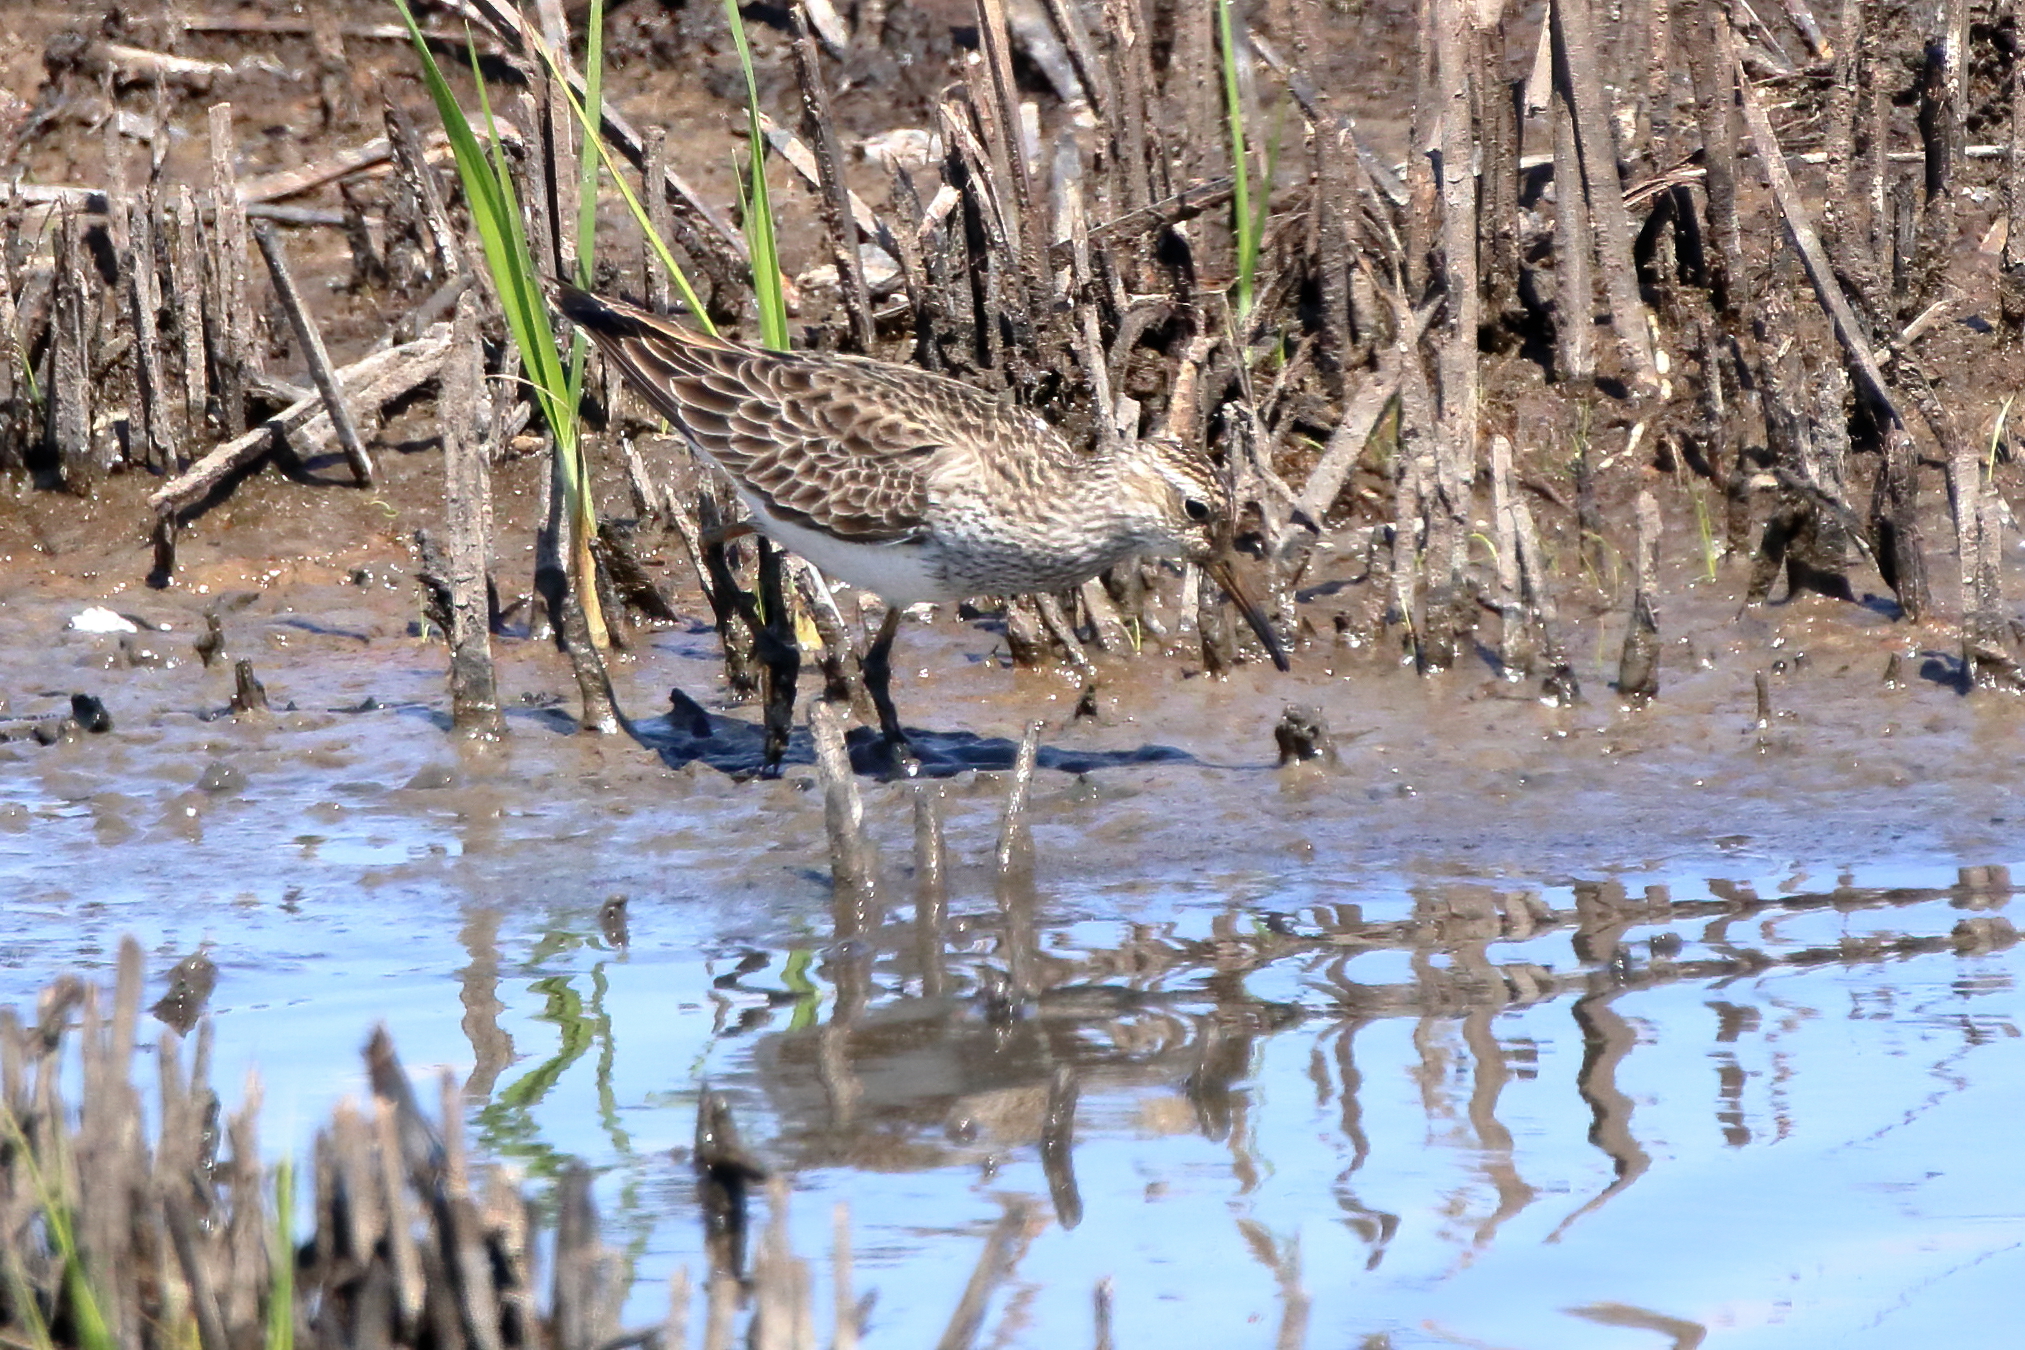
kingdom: Animalia
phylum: Chordata
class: Aves
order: Charadriiformes
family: Scolopacidae
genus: Calidris
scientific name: Calidris melanotos
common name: Pectoral sandpiper
